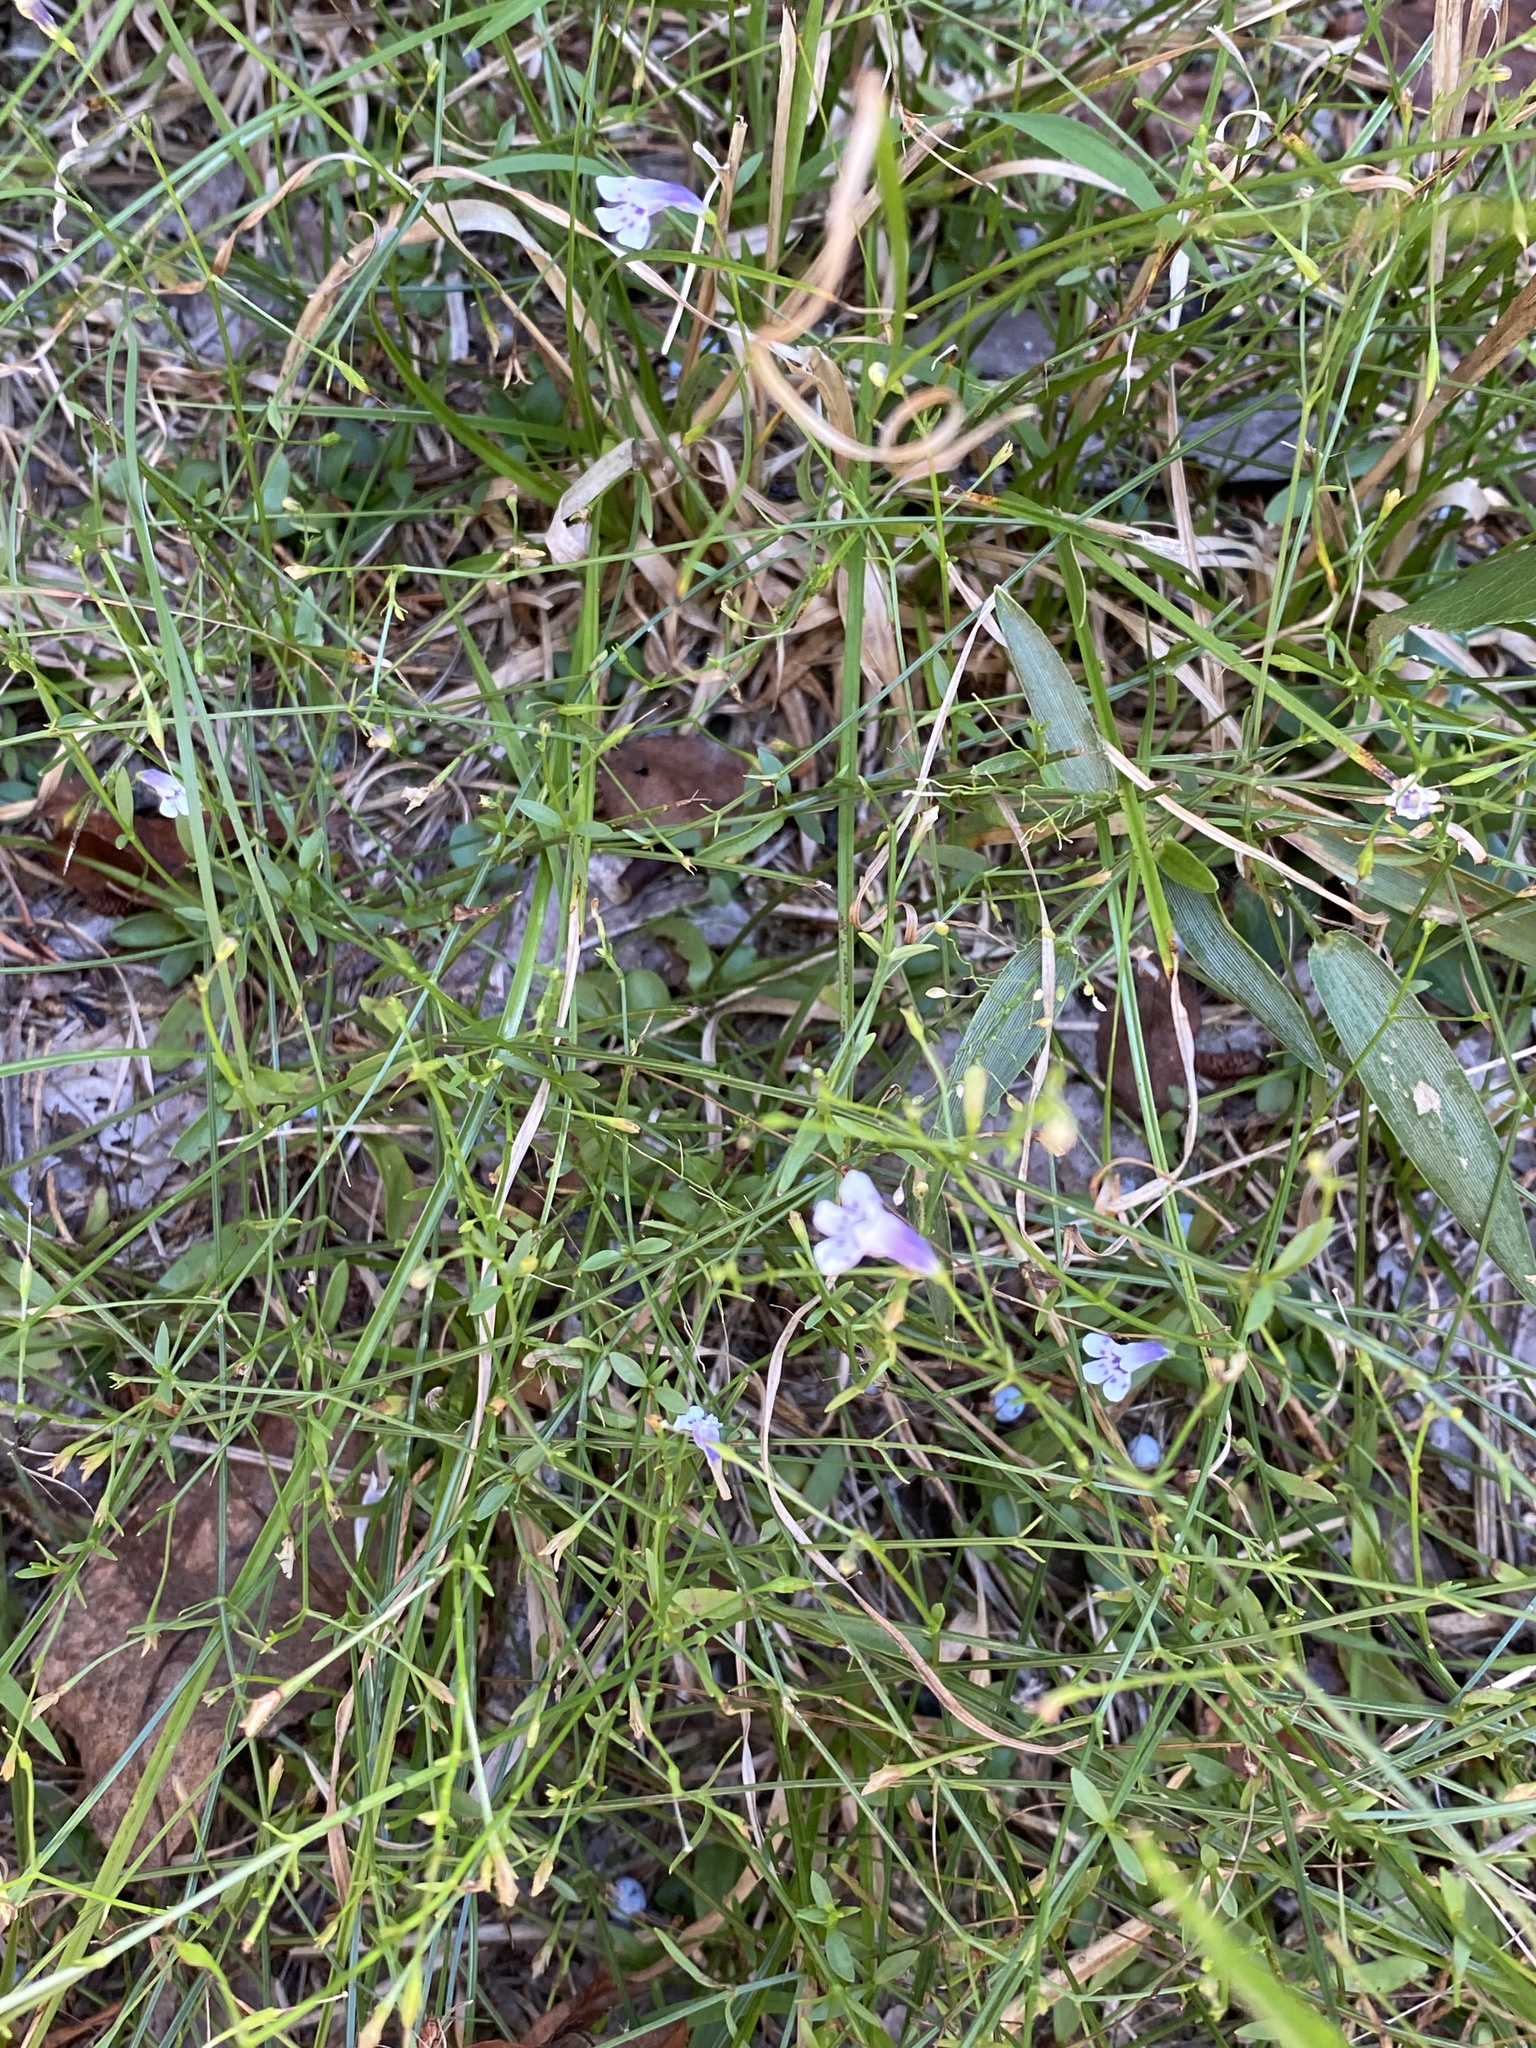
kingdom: Plantae
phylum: Tracheophyta
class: Magnoliopsida
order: Lamiales
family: Linderniaceae
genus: Lindernia
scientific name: Lindernia monticola
